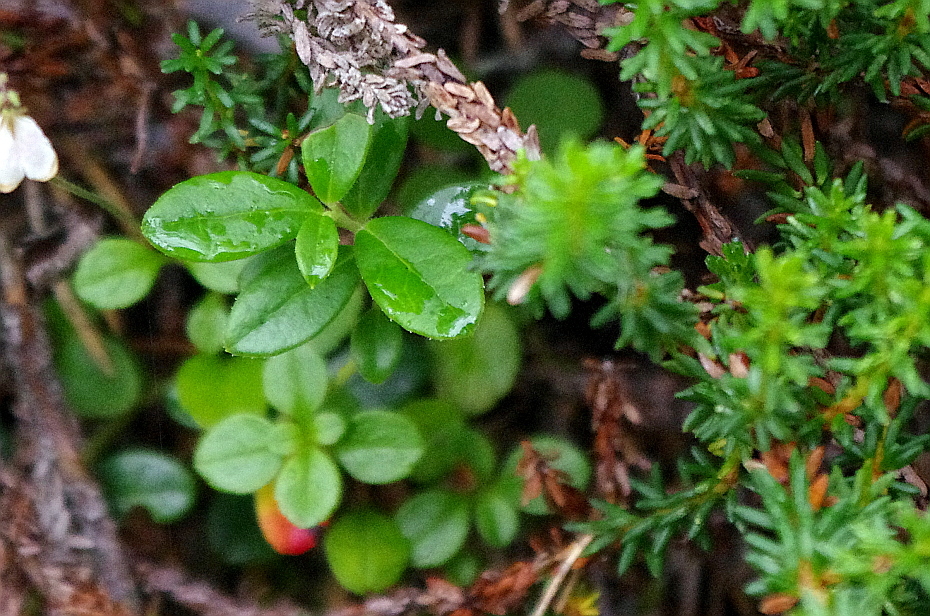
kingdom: Plantae
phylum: Tracheophyta
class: Magnoliopsida
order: Ericales
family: Ericaceae
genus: Vaccinium
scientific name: Vaccinium vitis-idaea
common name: Cowberry
